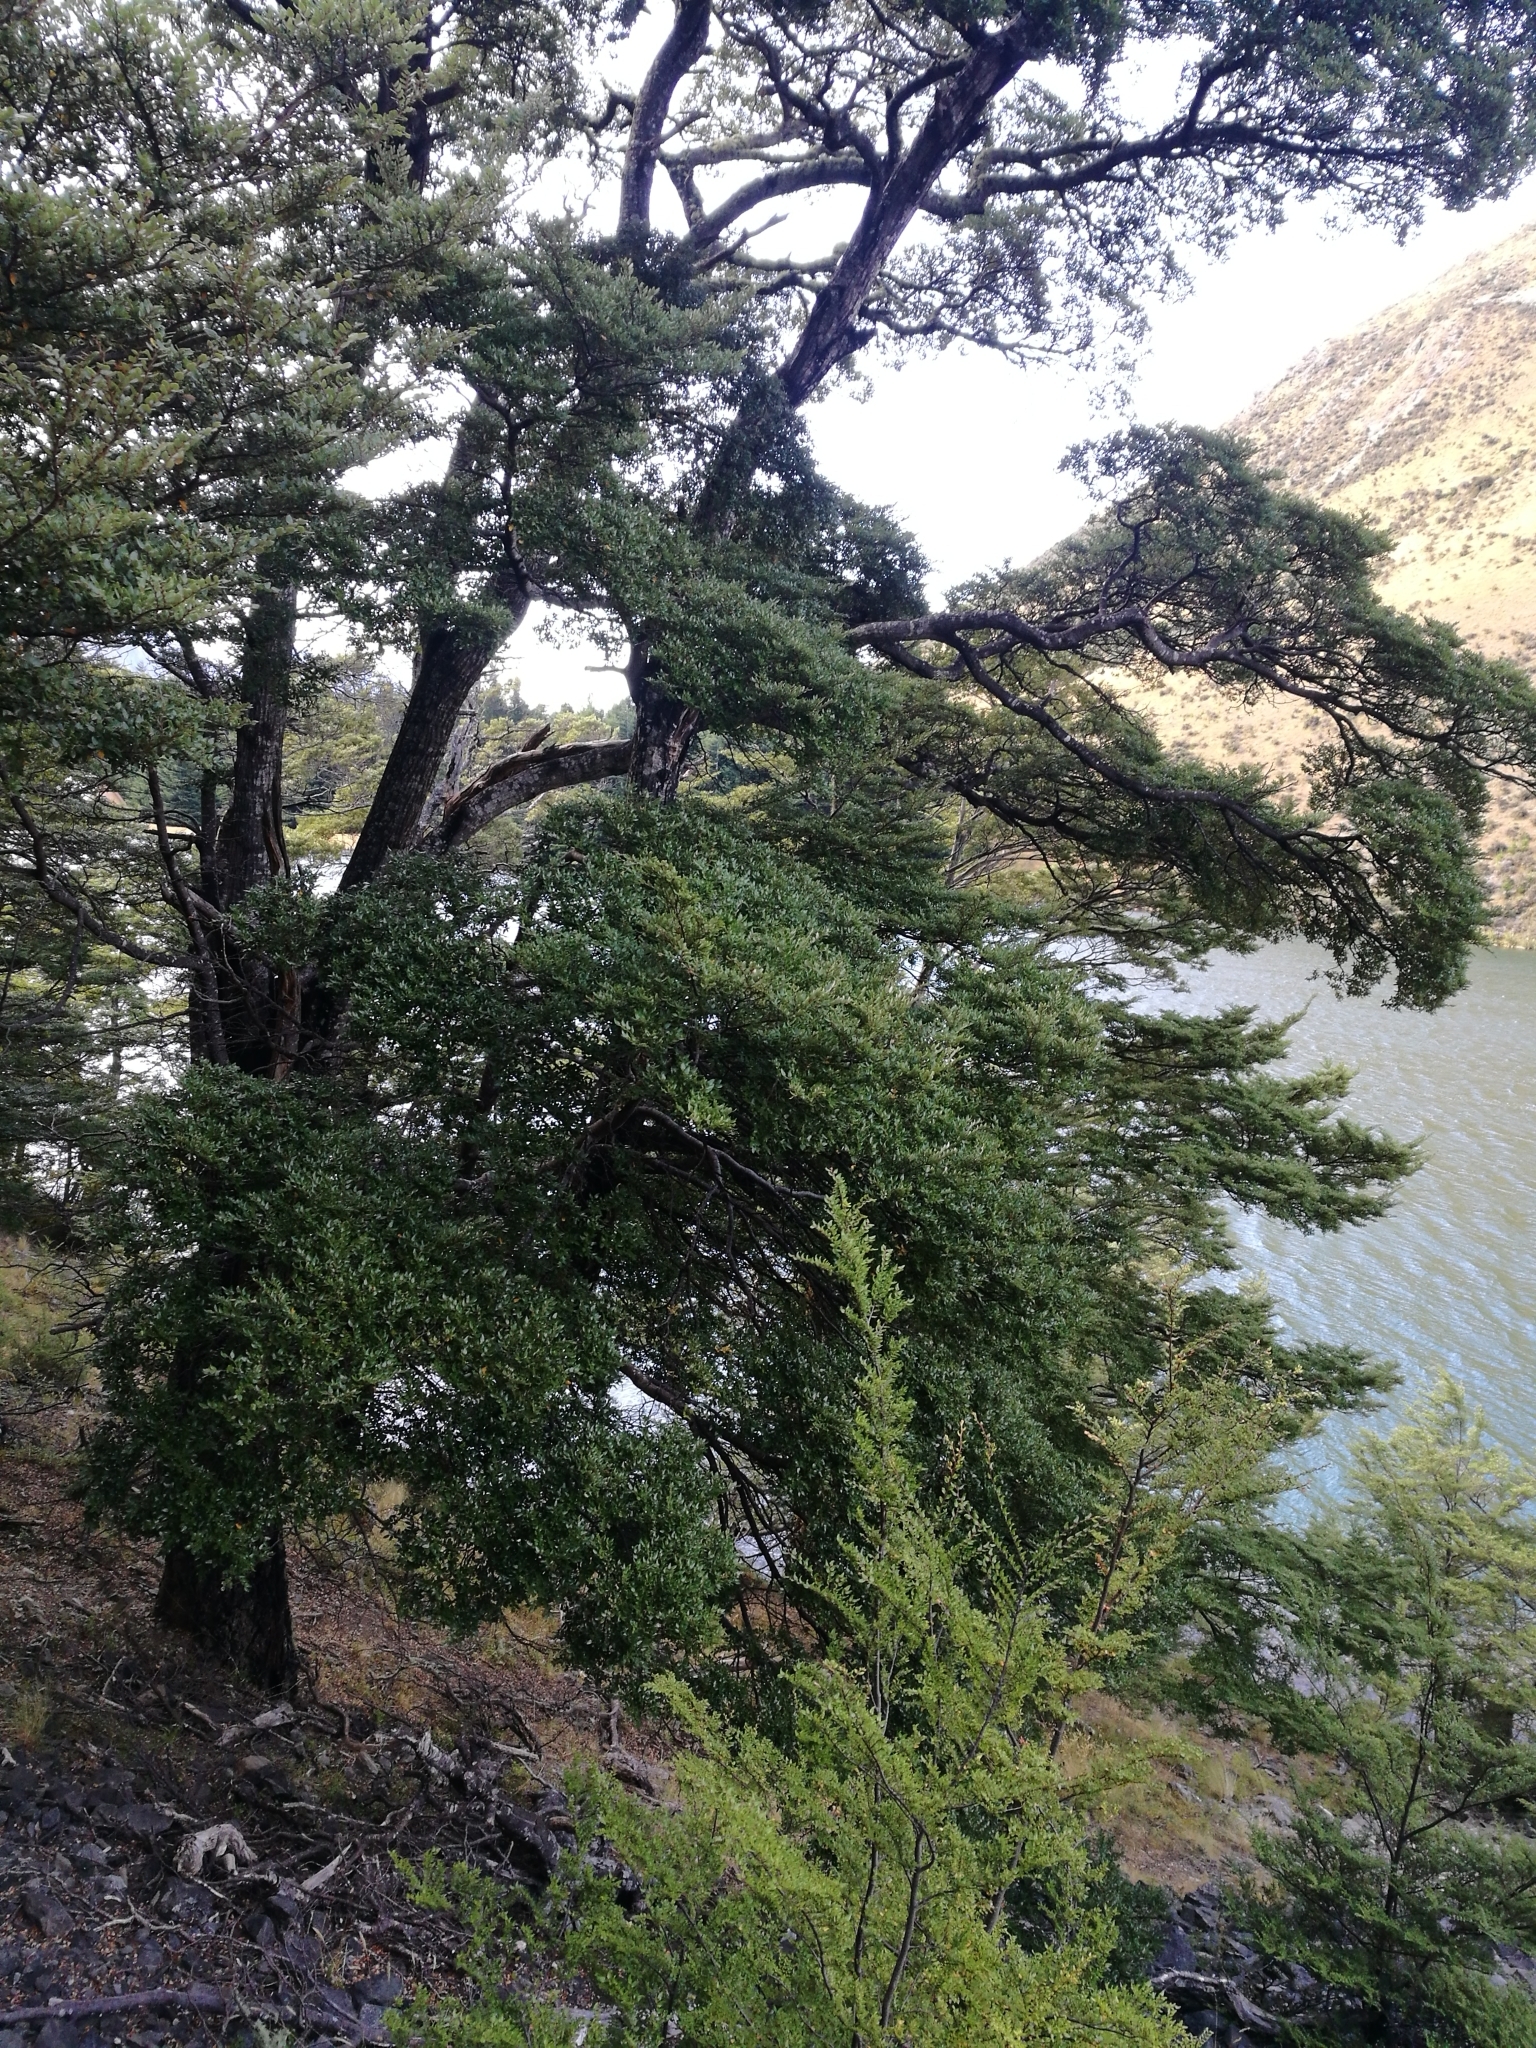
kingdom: Plantae
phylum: Tracheophyta
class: Magnoliopsida
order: Fagales
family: Nothofagaceae
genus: Nothofagus
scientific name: Nothofagus cliffortioides
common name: Mountain beech
